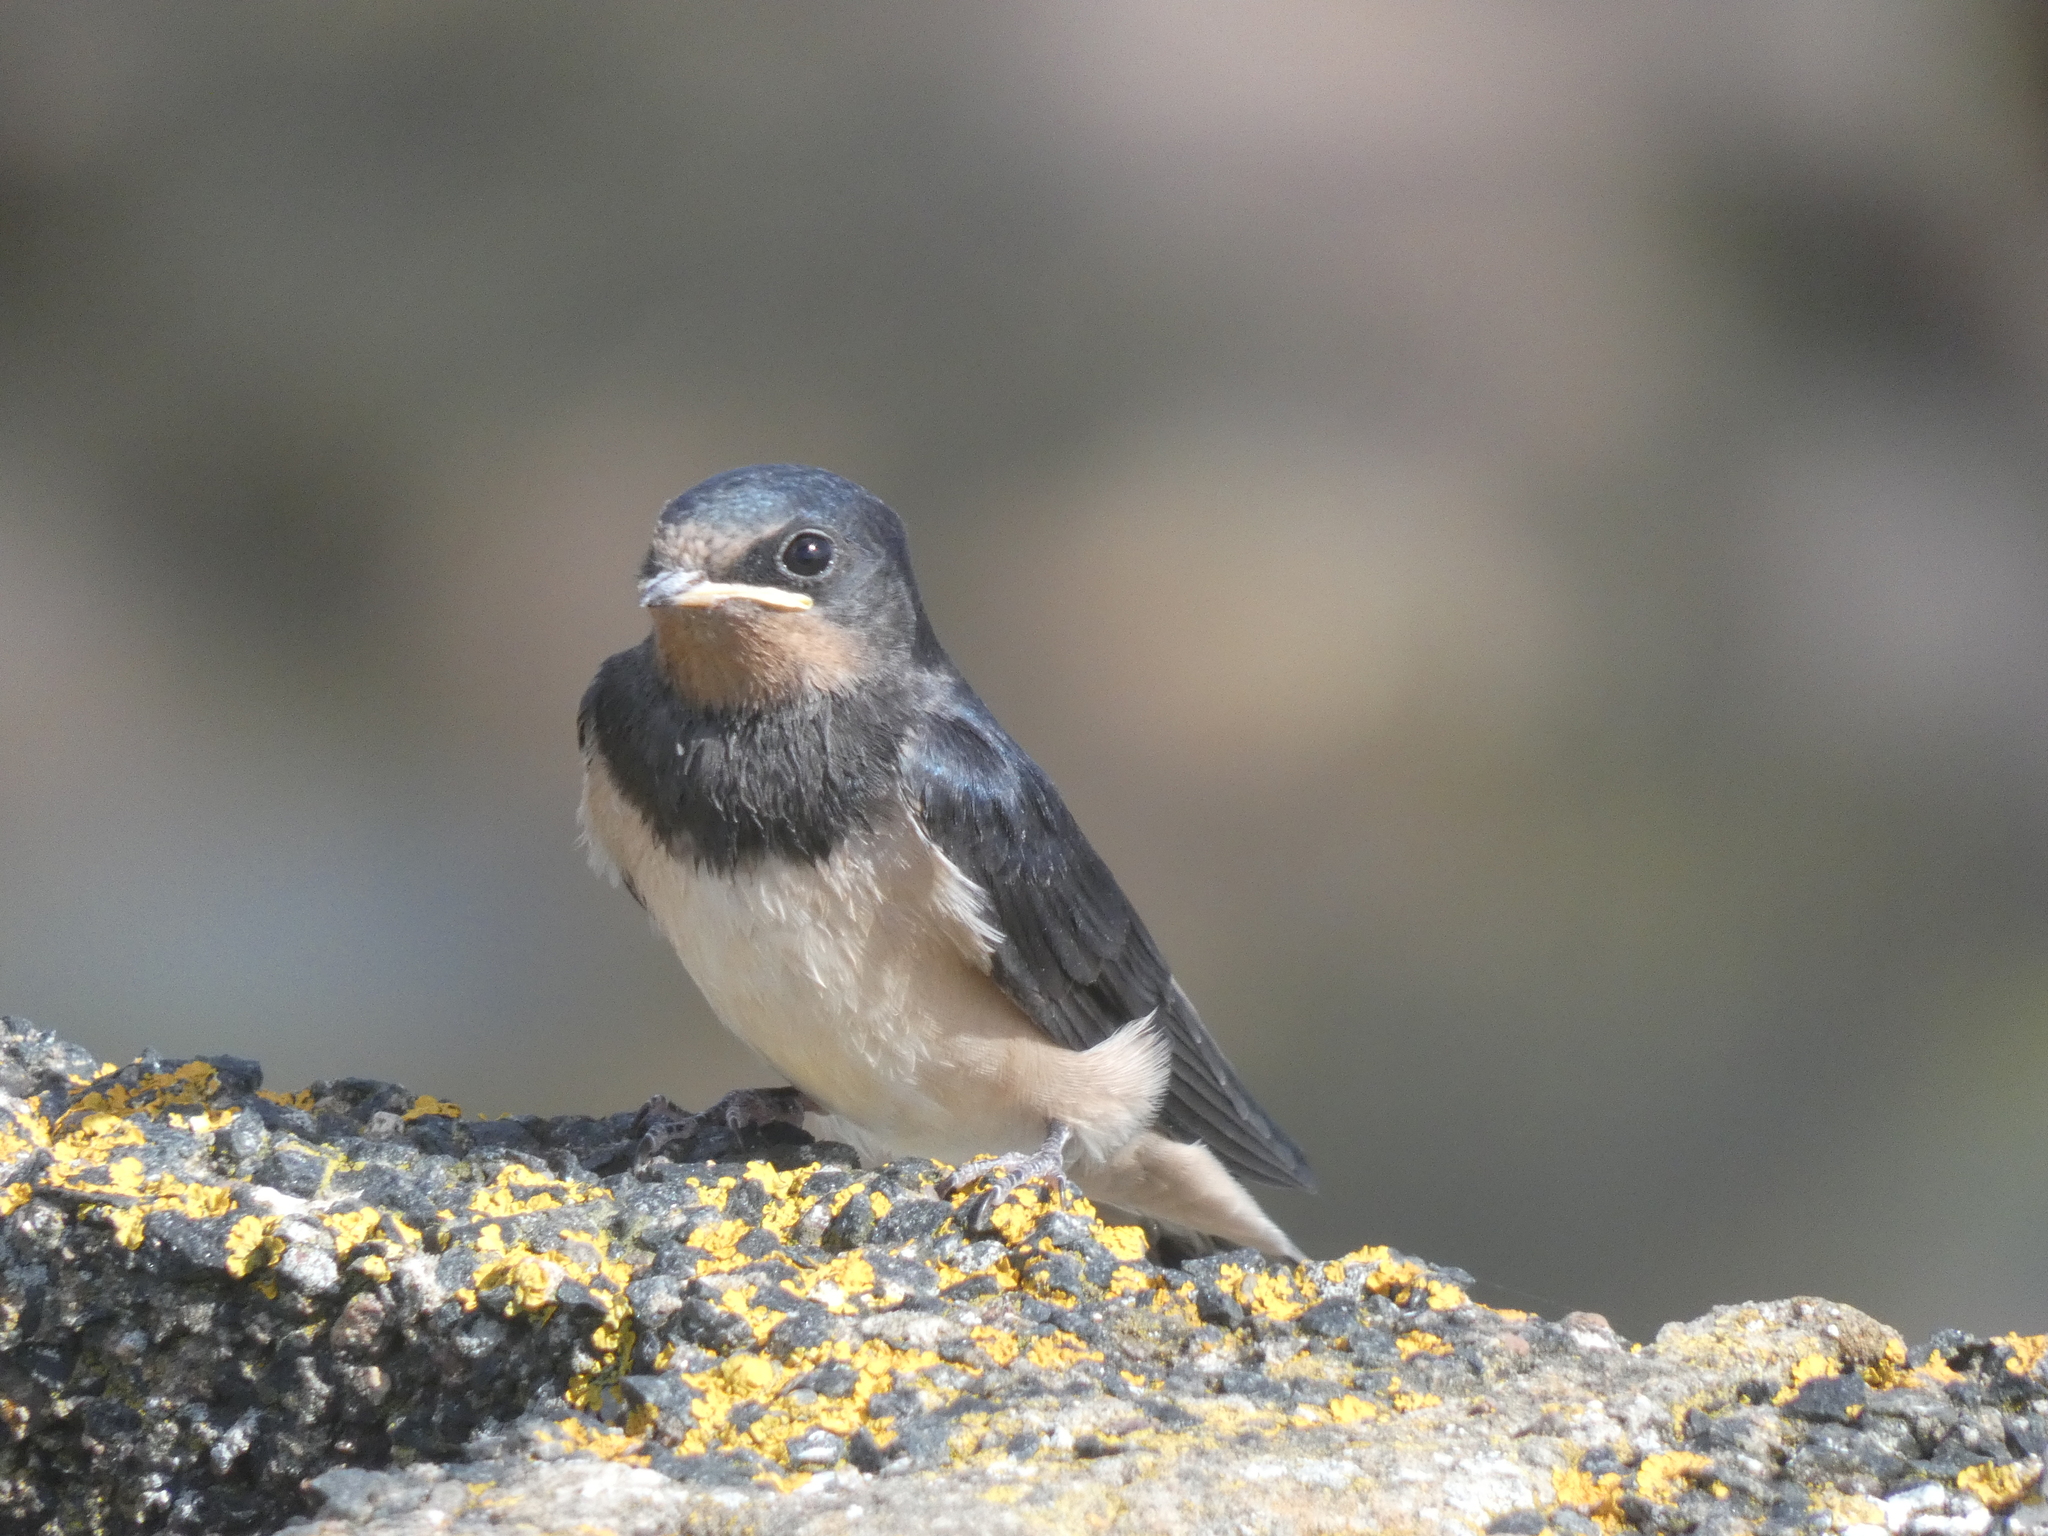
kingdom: Animalia
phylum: Chordata
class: Aves
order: Passeriformes
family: Hirundinidae
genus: Hirundo
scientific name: Hirundo rustica
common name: Barn swallow
